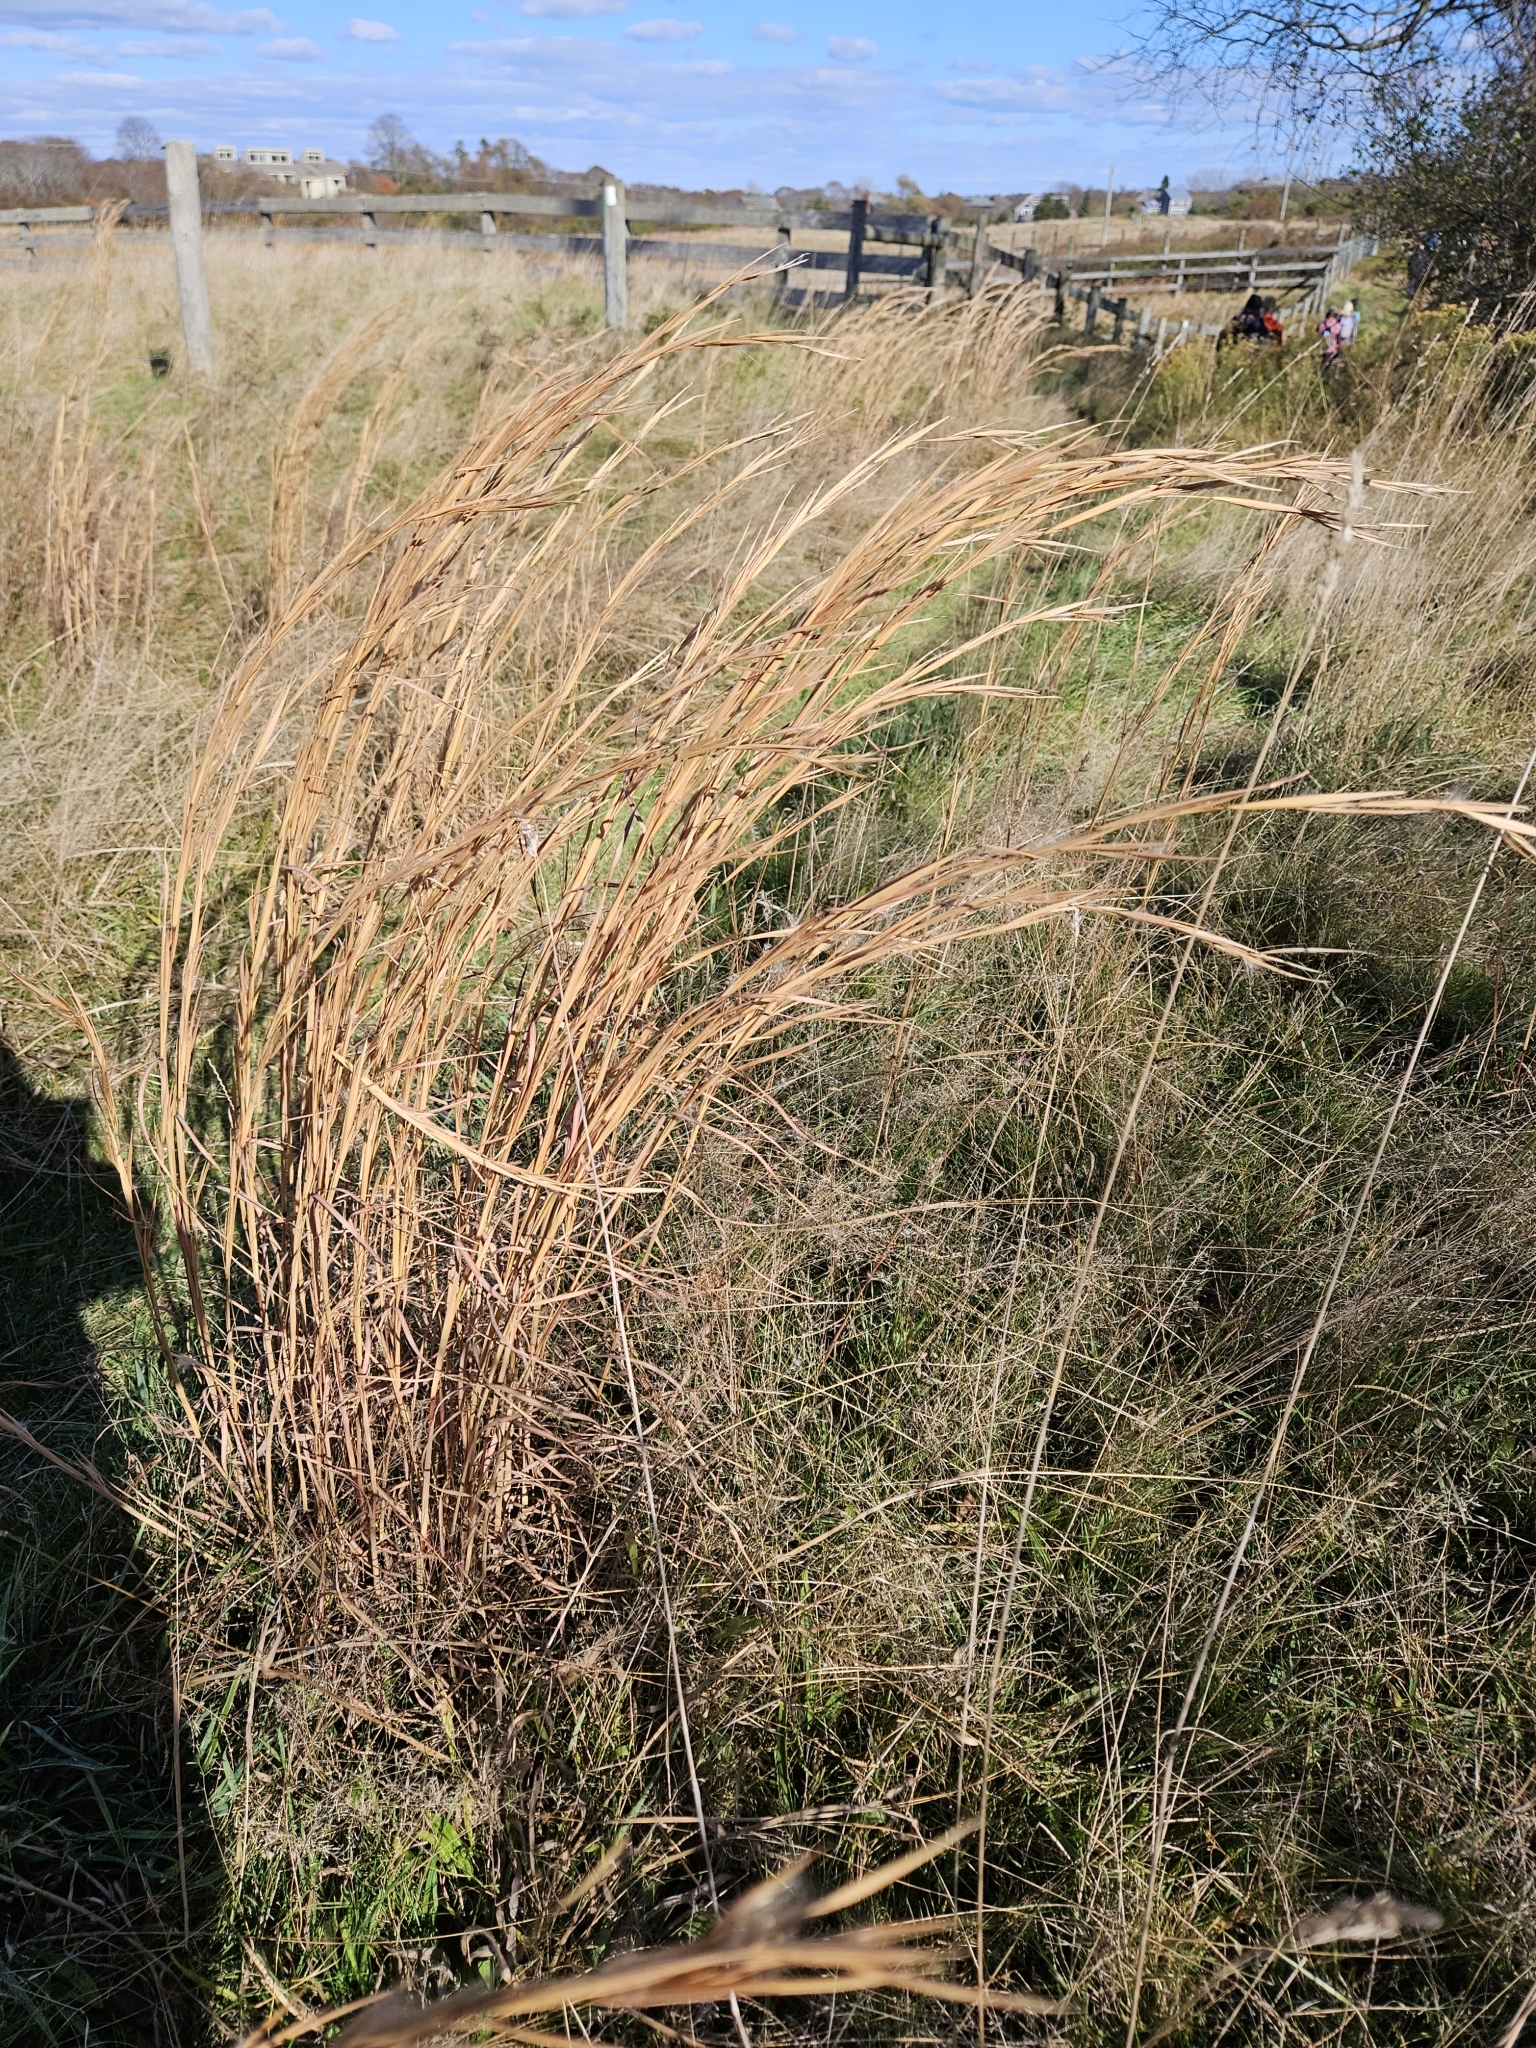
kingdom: Plantae
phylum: Tracheophyta
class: Liliopsida
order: Poales
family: Poaceae
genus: Andropogon
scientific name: Andropogon glomeratus
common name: Bushy beard grass
